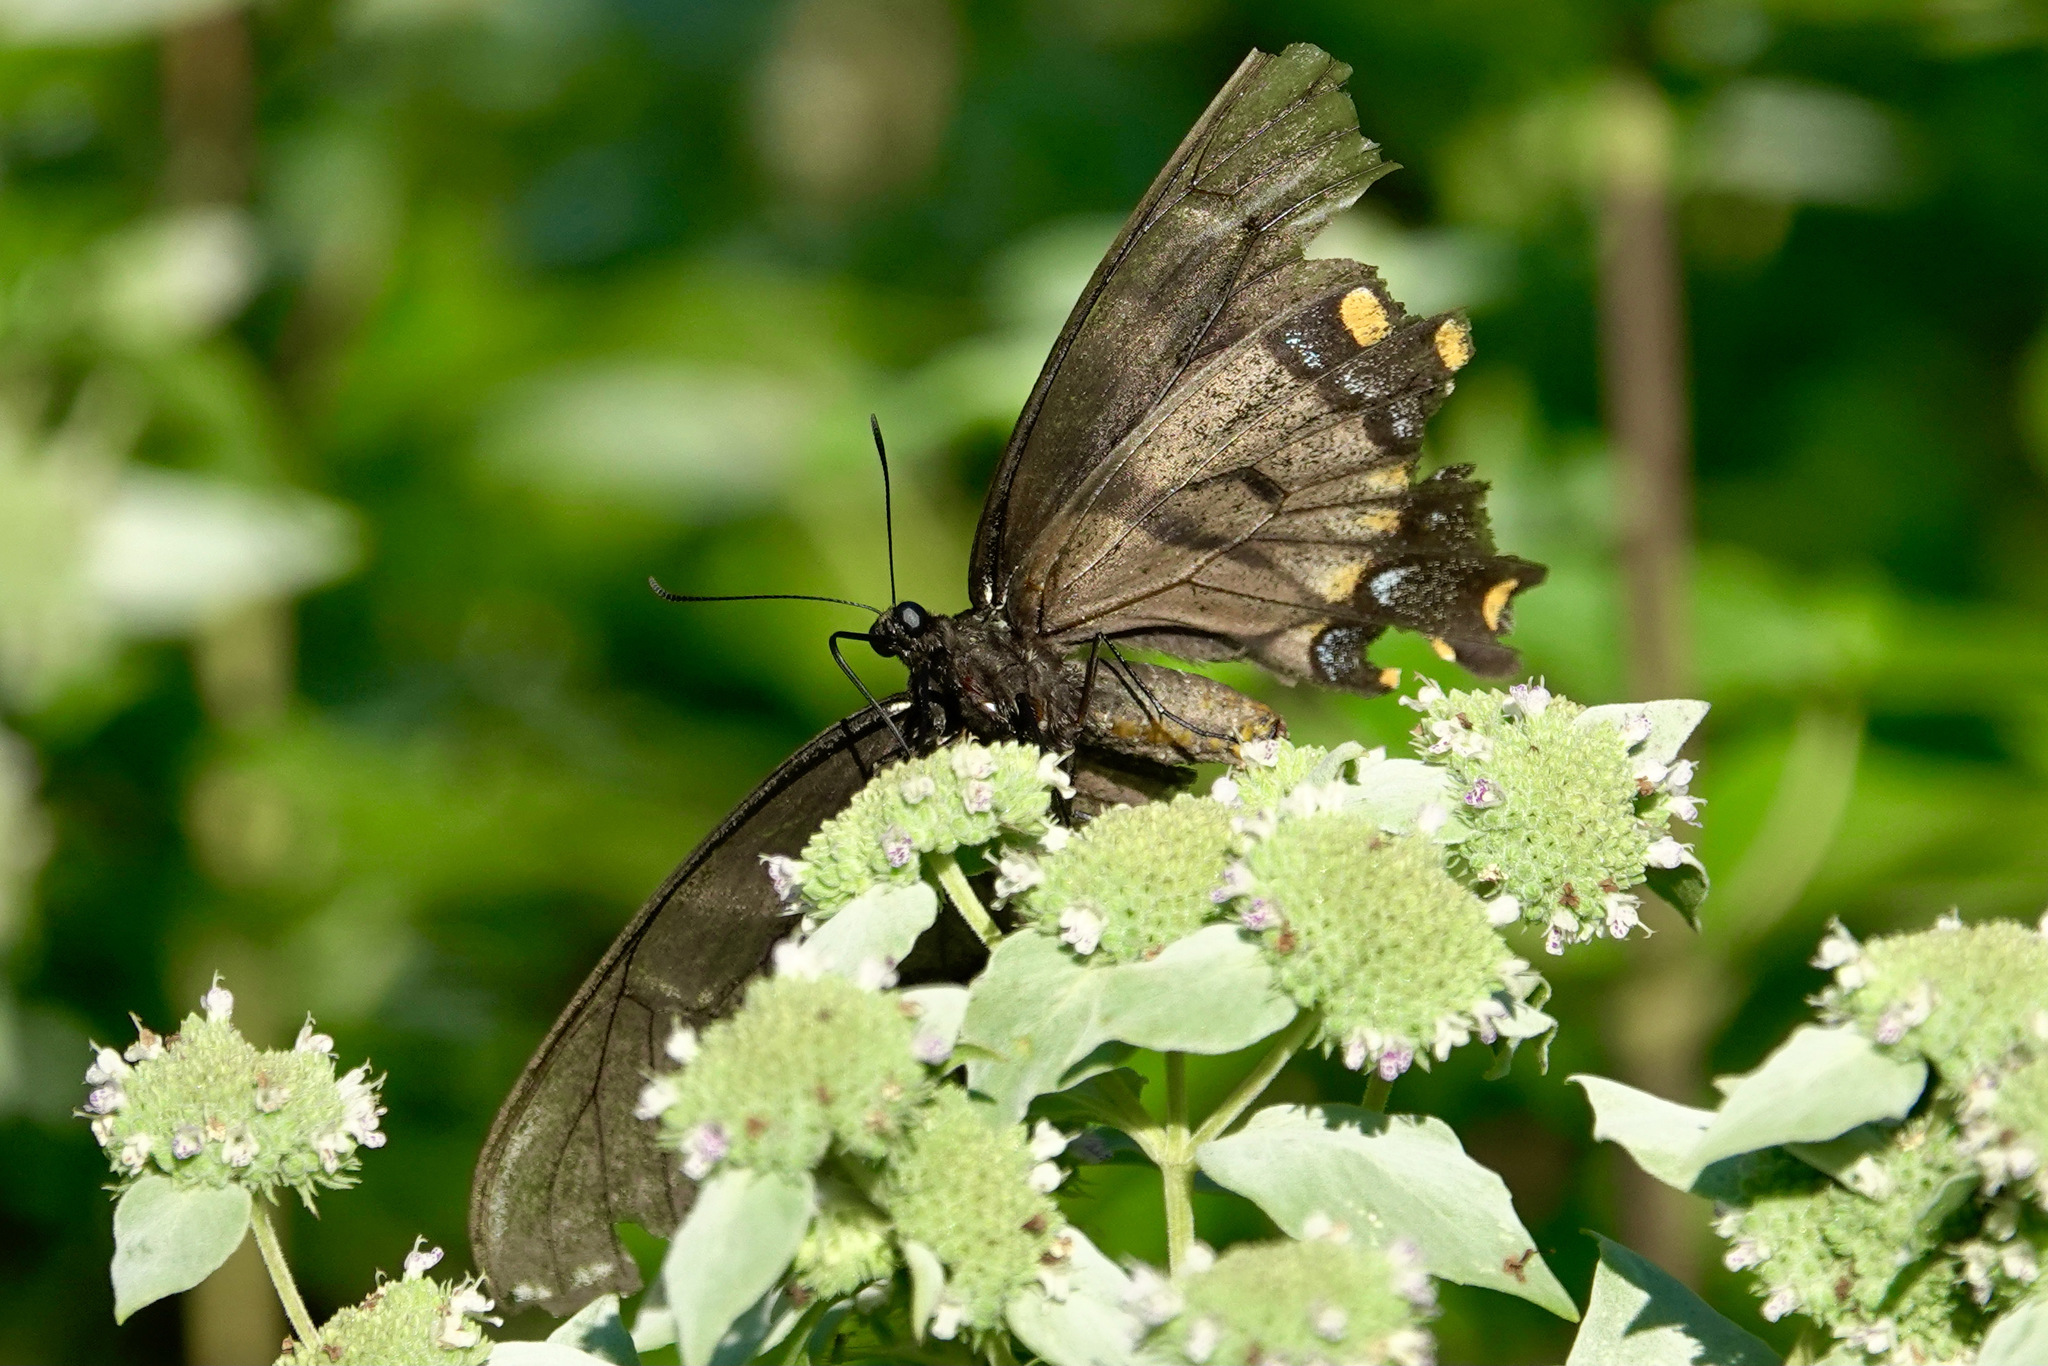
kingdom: Animalia
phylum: Arthropoda
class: Insecta
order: Lepidoptera
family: Papilionidae
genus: Papilio
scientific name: Papilio glaucus
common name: Tiger swallowtail
